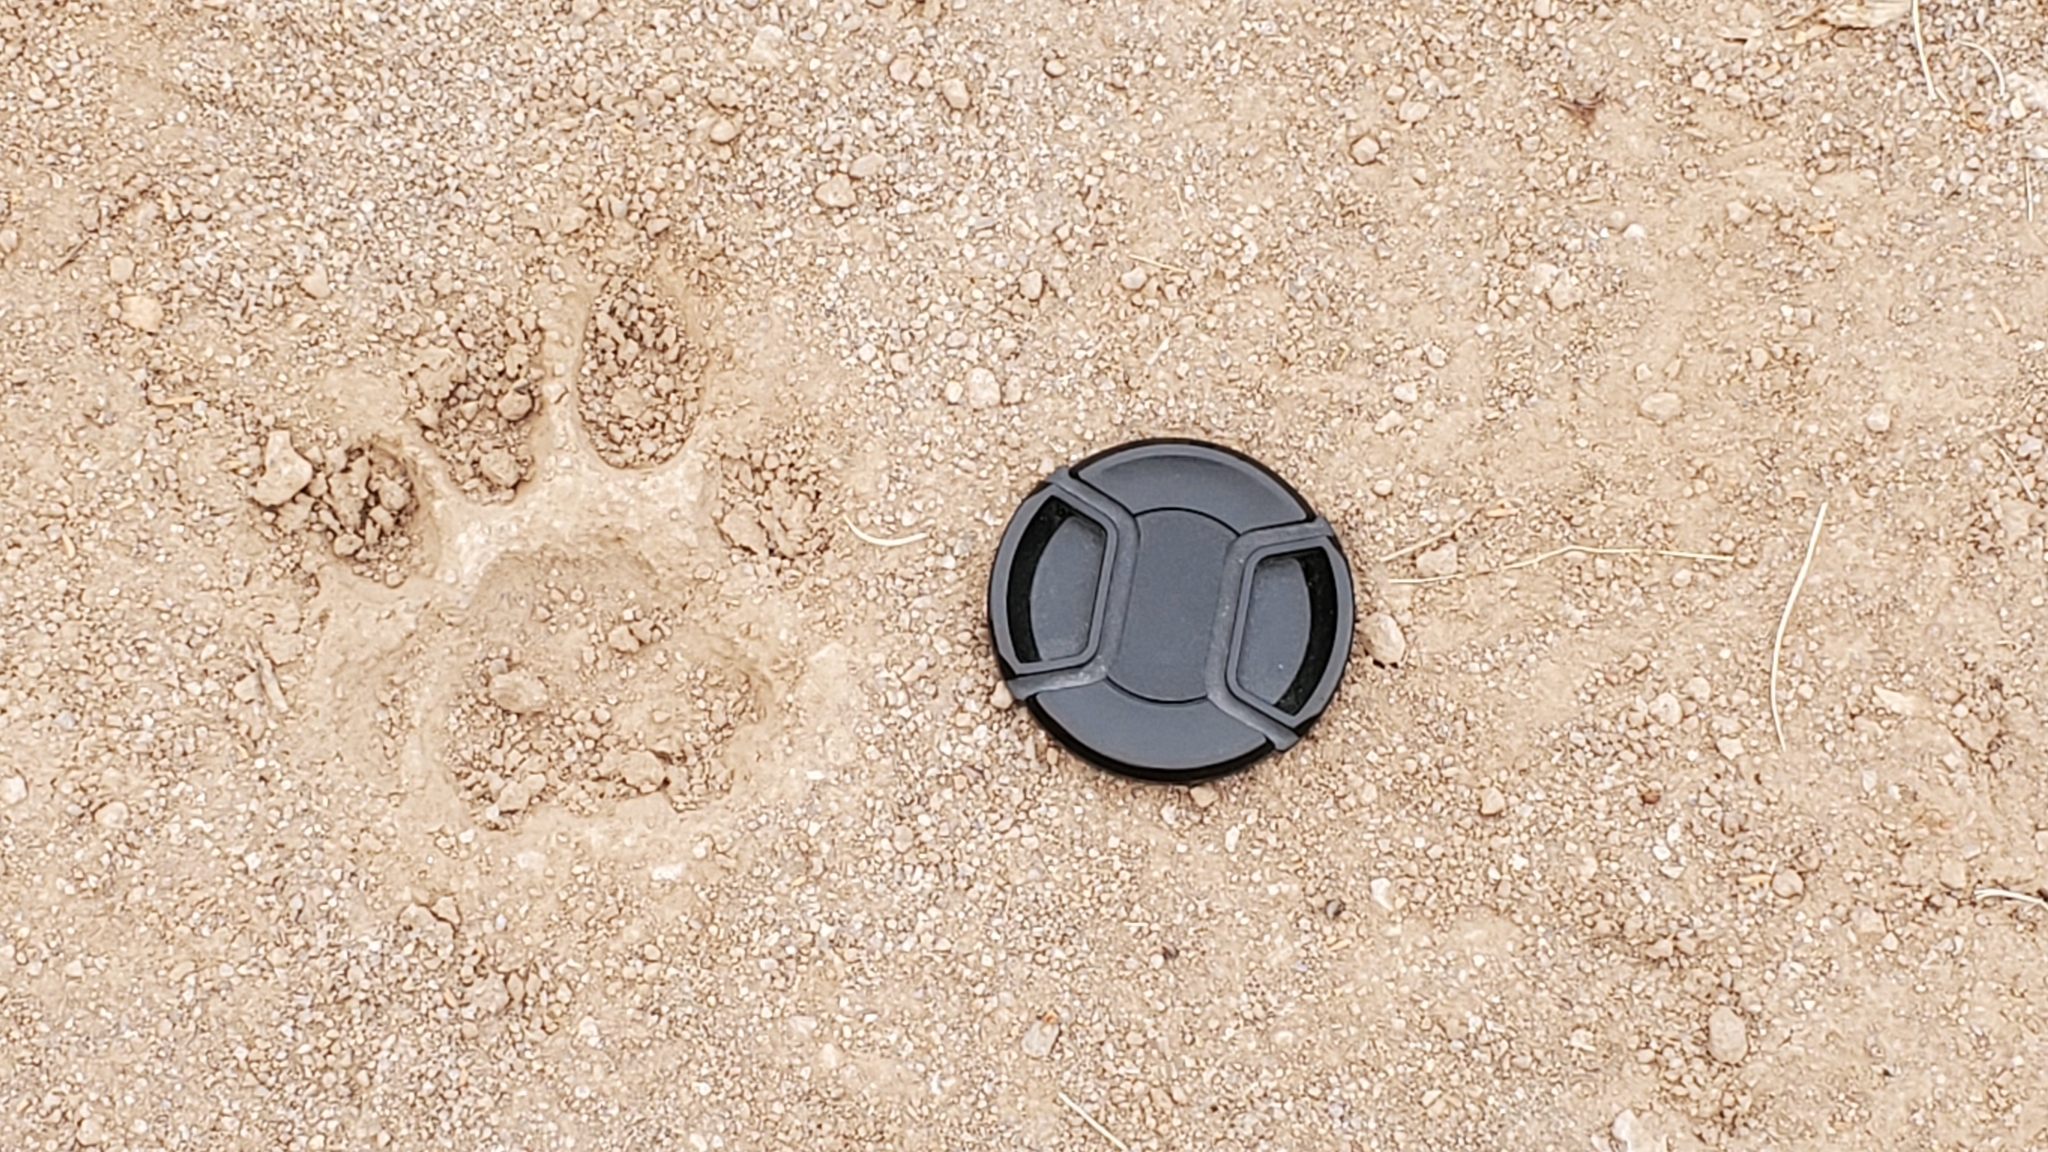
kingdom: Animalia
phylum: Chordata
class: Mammalia
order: Carnivora
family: Felidae
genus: Puma
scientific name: Puma concolor
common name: Puma
